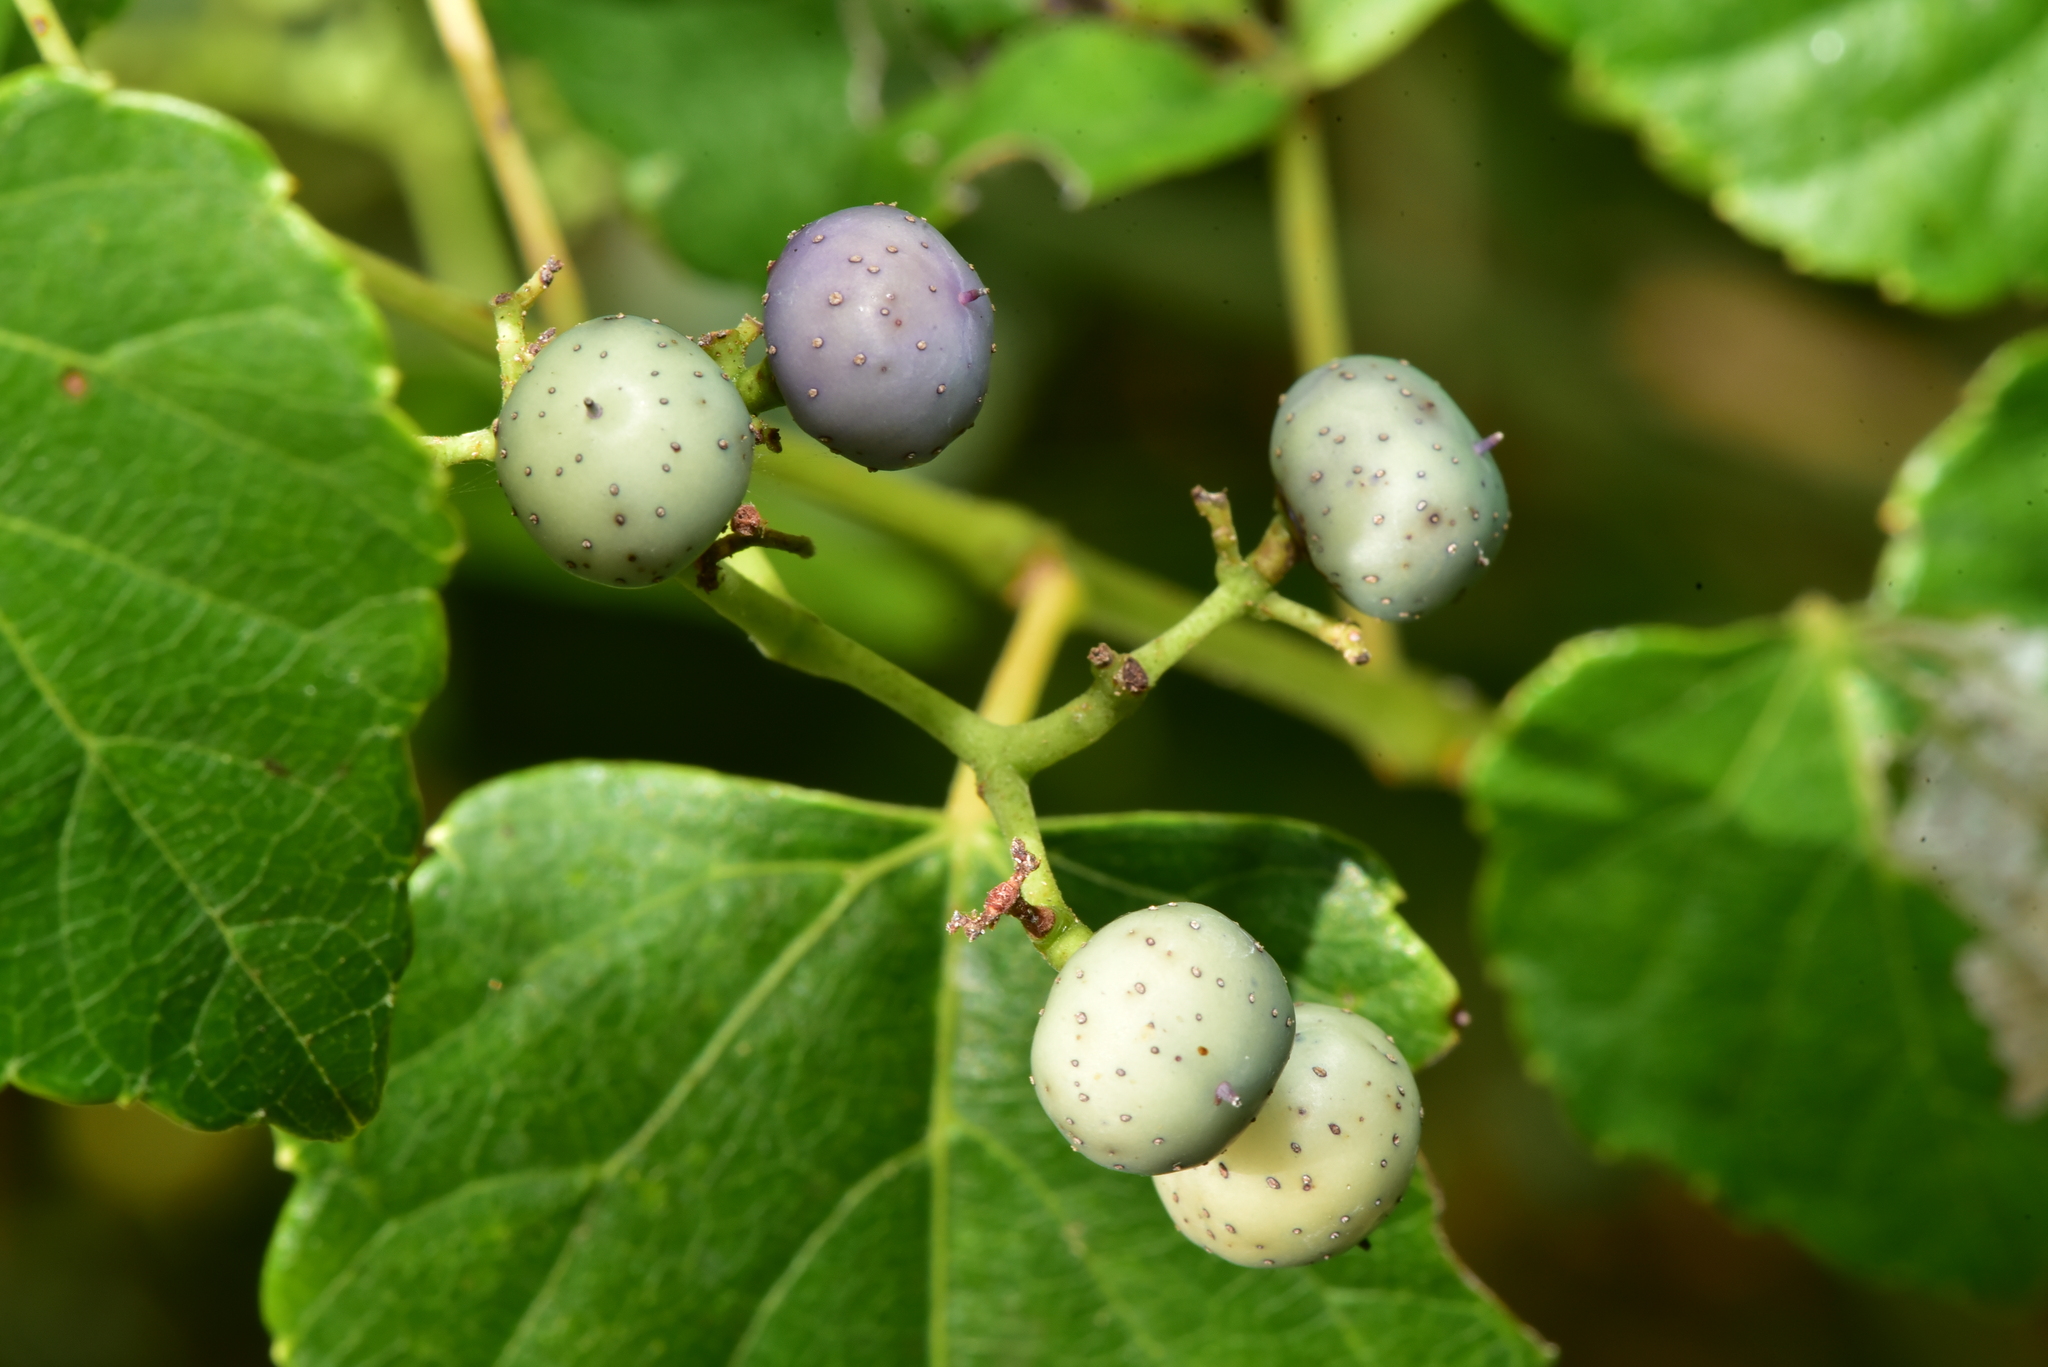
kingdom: Plantae
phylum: Tracheophyta
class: Magnoliopsida
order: Vitales
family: Vitaceae
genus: Ampelopsis
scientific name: Ampelopsis glandulosa
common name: Amur peppervine
